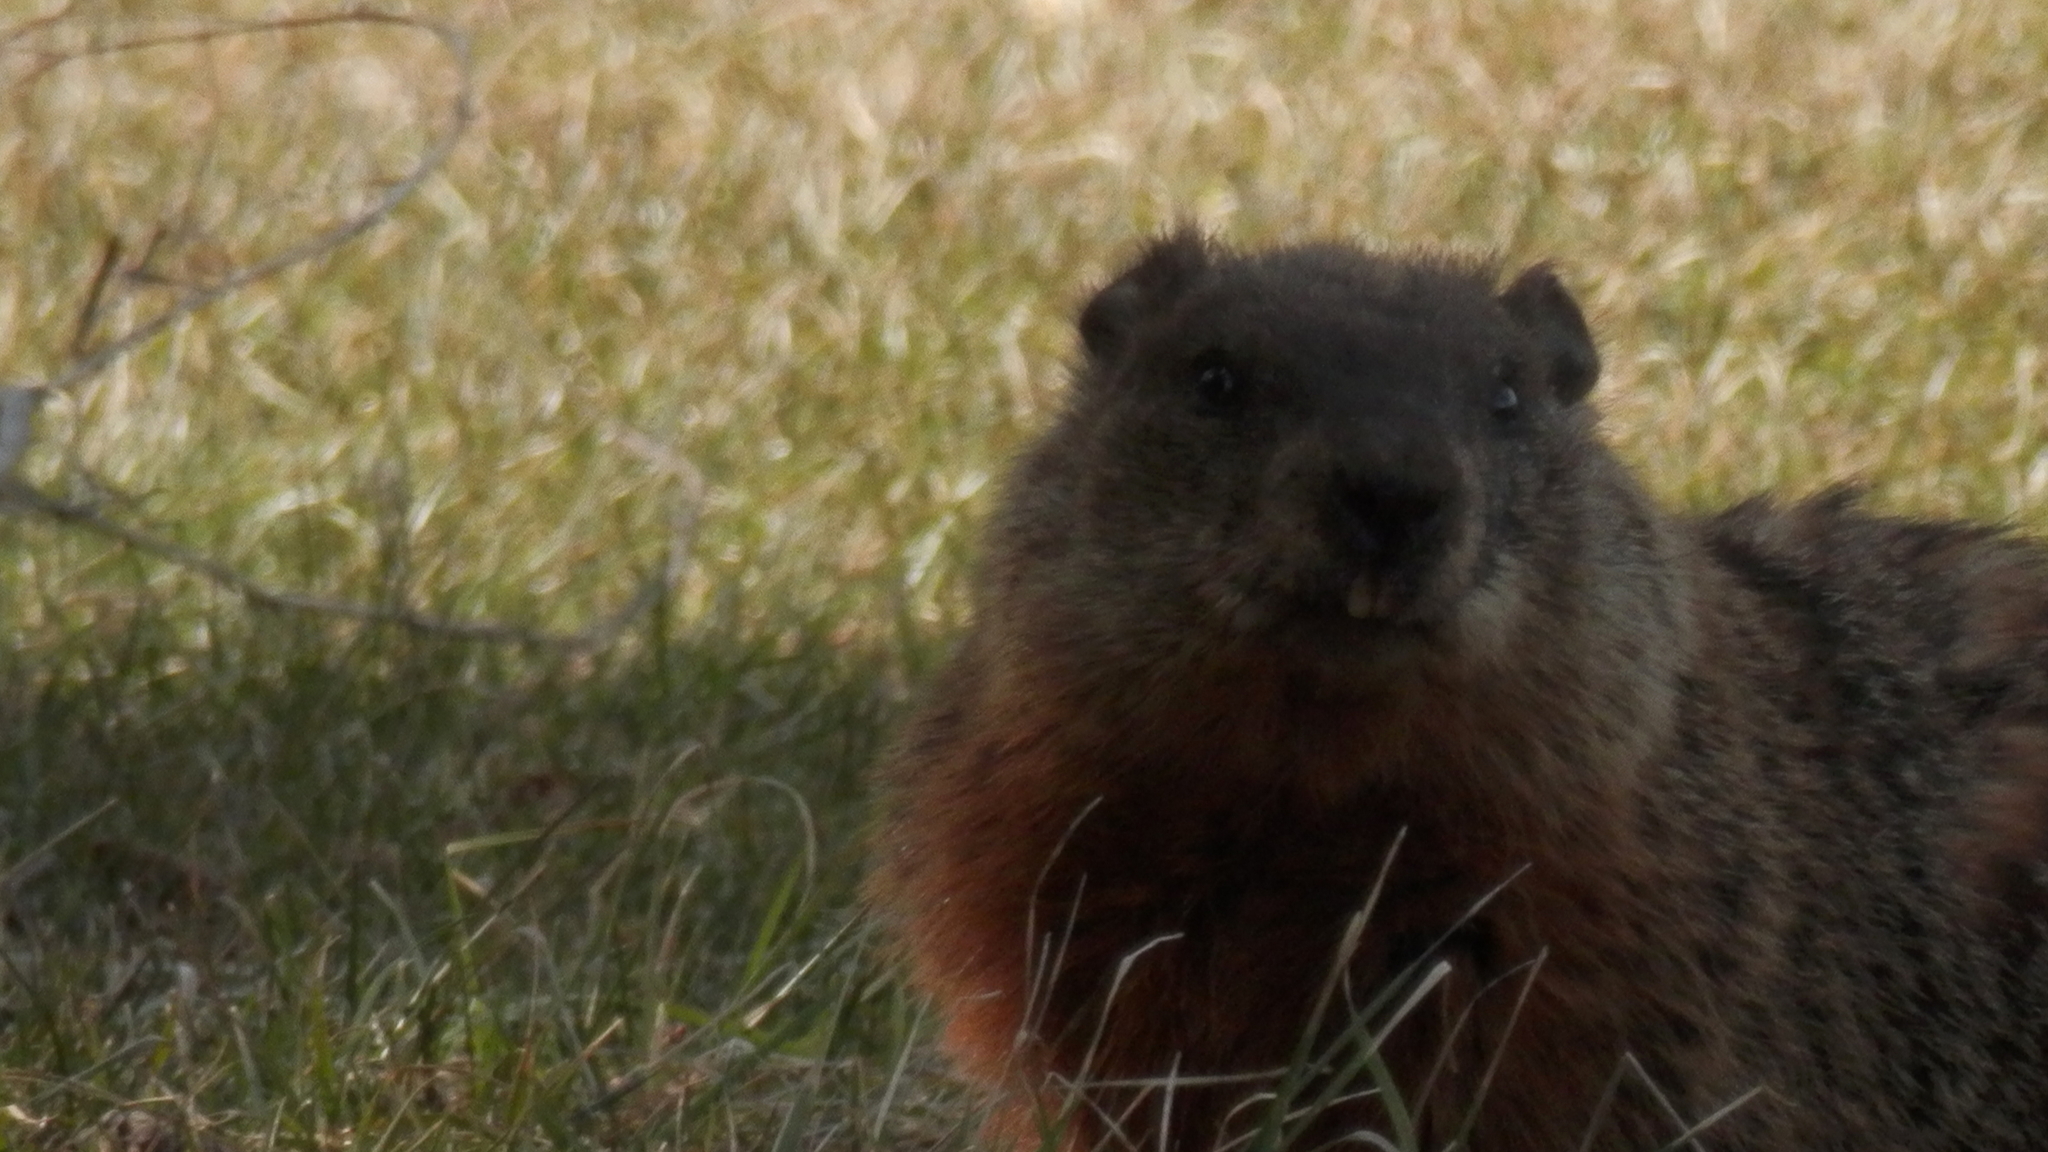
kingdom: Animalia
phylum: Chordata
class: Mammalia
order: Rodentia
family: Sciuridae
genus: Marmota
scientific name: Marmota monax
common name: Groundhog
